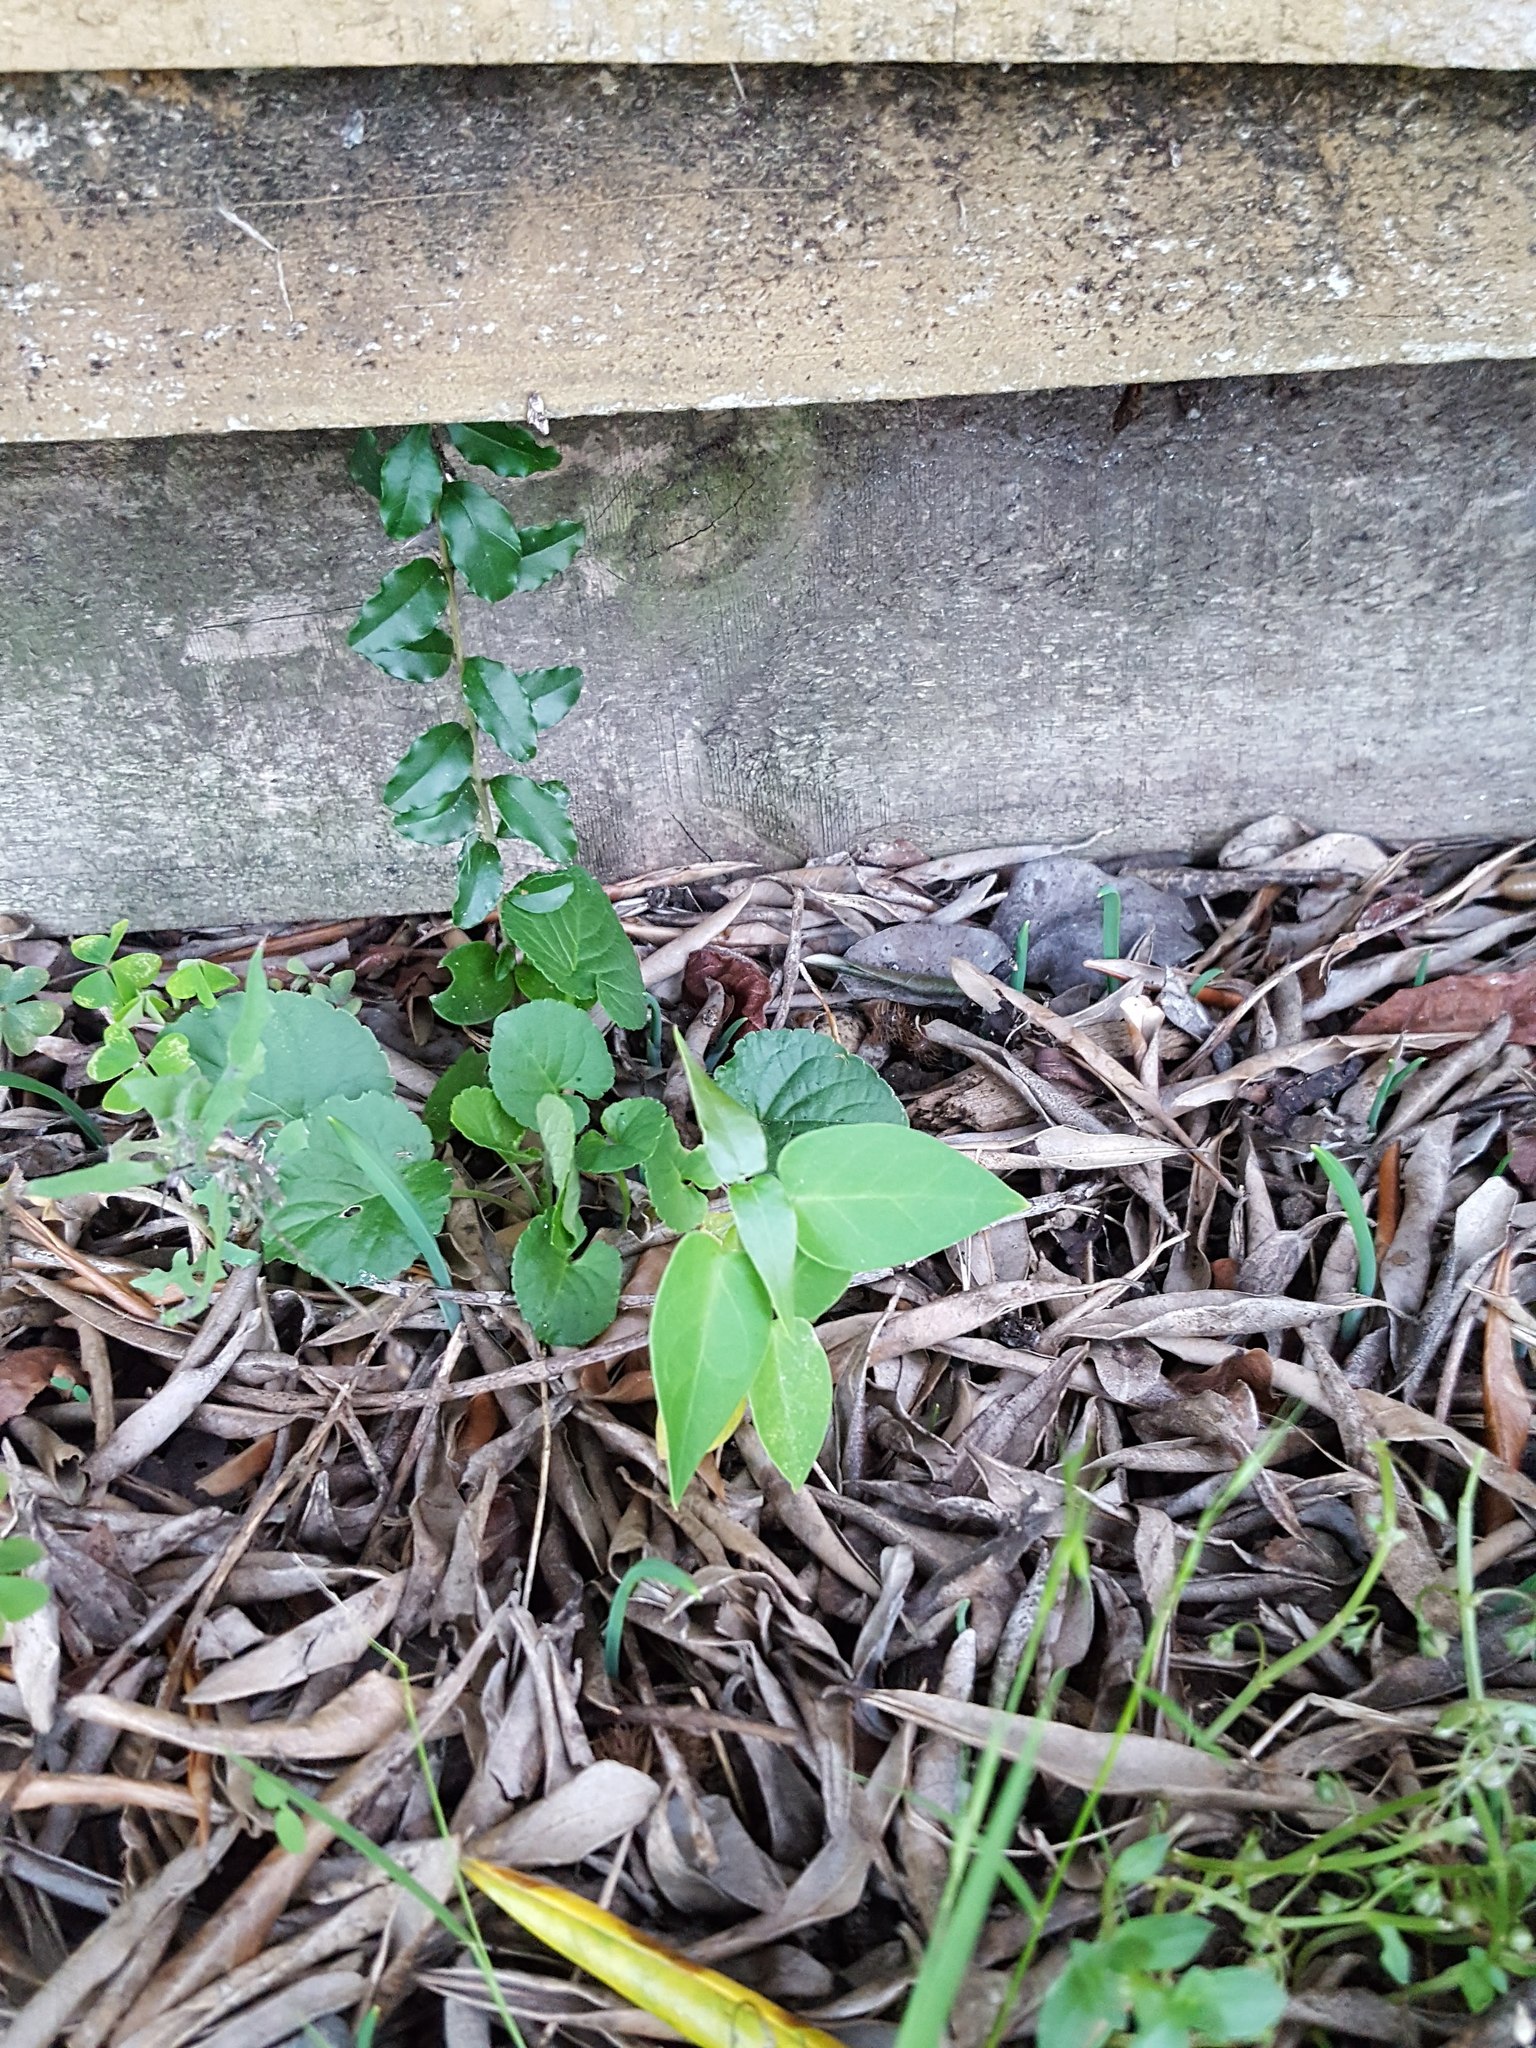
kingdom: Plantae
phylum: Tracheophyta
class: Magnoliopsida
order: Gentianales
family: Apocynaceae
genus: Araujia
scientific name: Araujia sericifera
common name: White bladderflower
